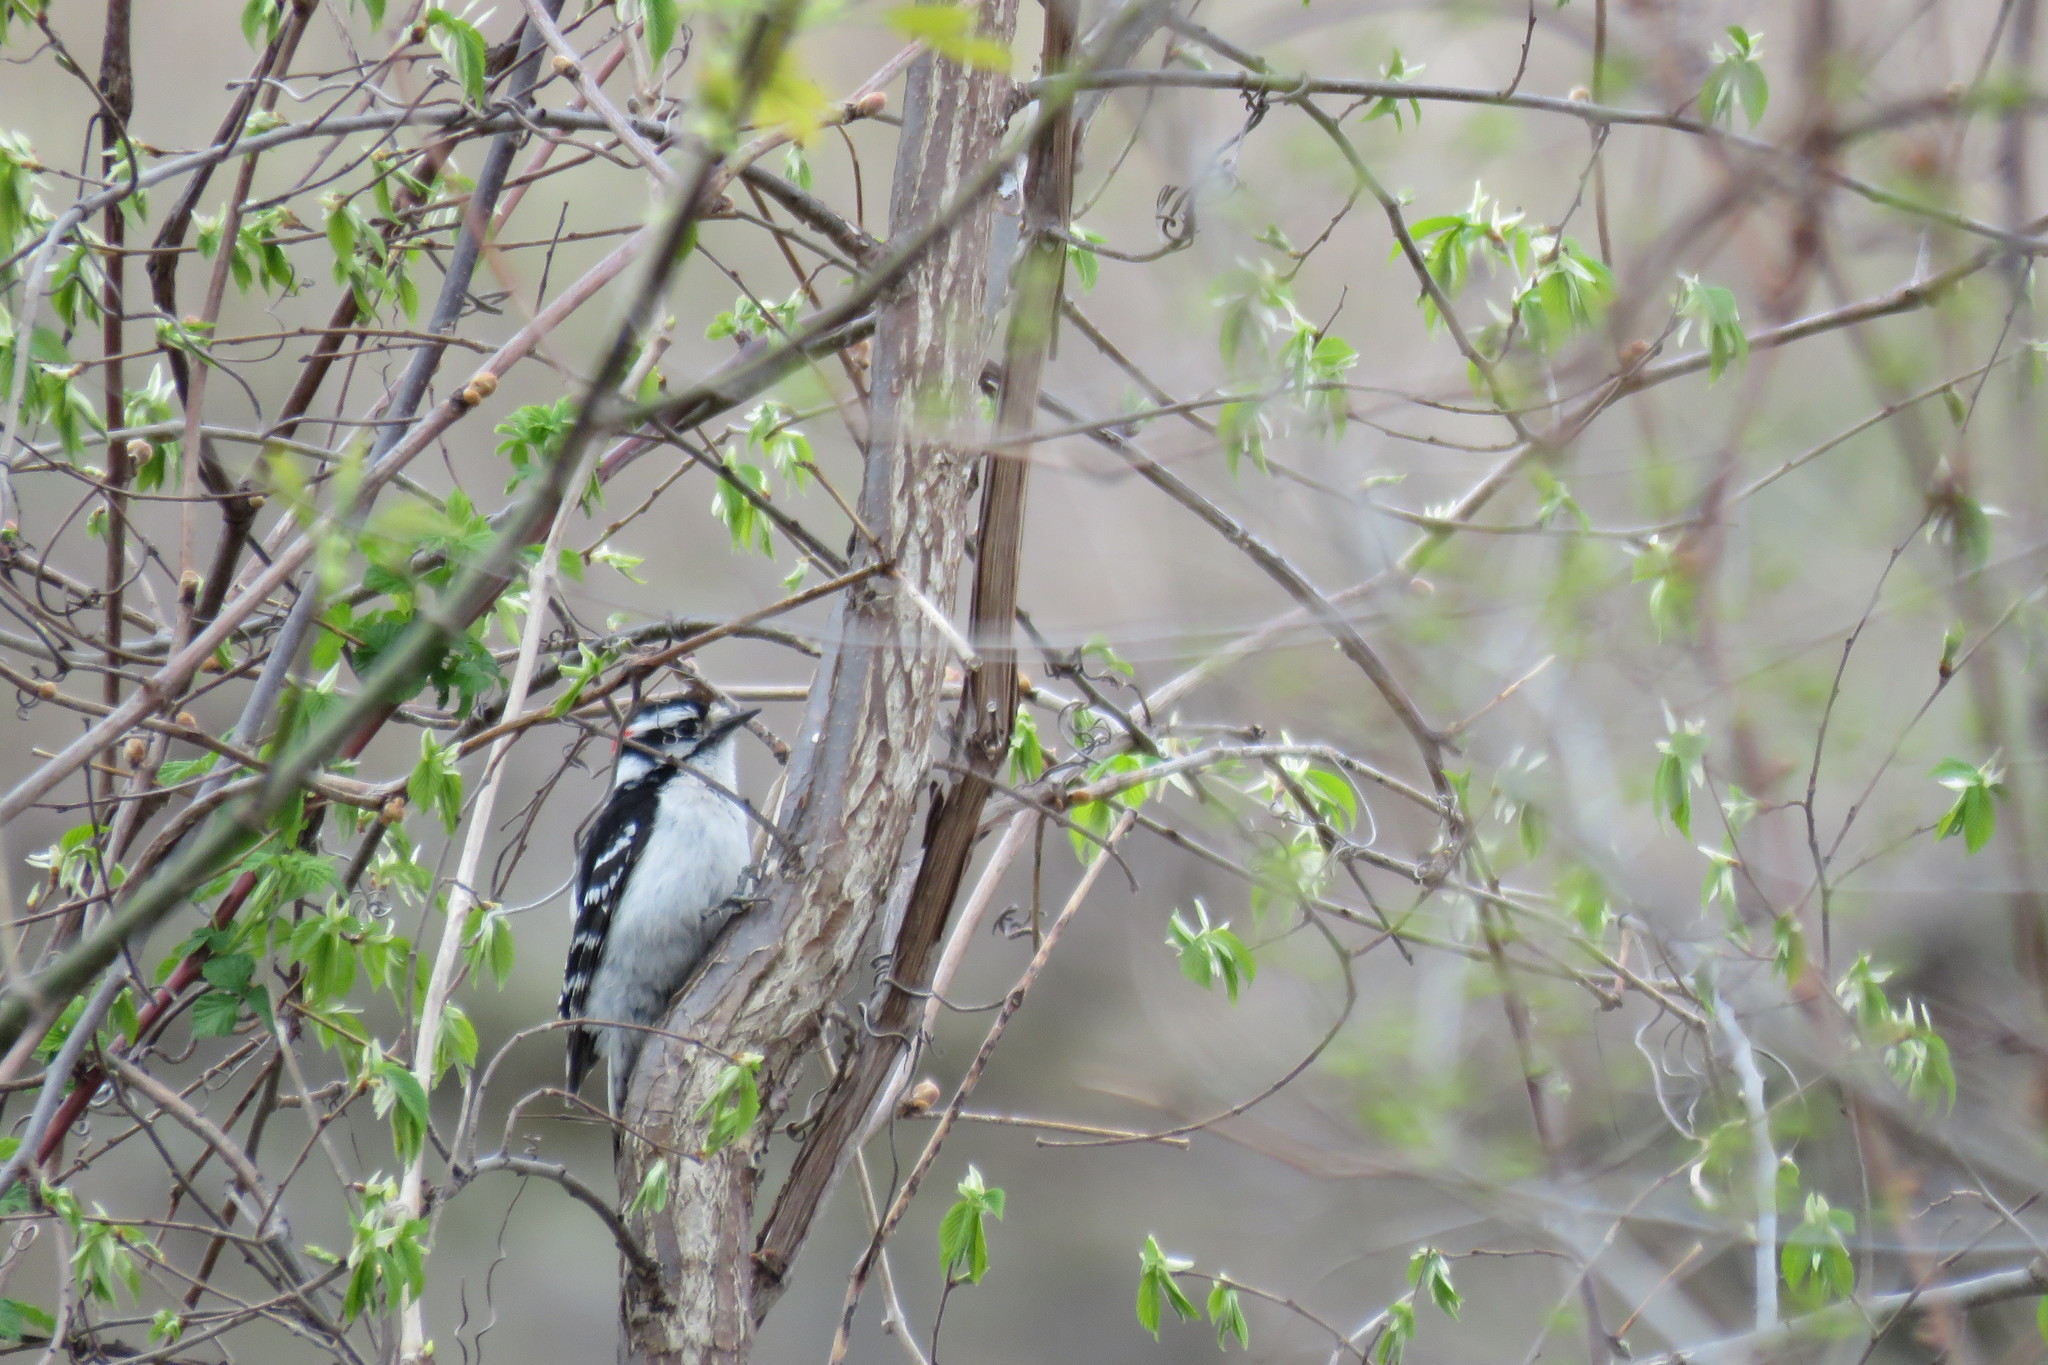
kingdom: Animalia
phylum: Chordata
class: Aves
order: Piciformes
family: Picidae
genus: Dryobates
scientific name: Dryobates pubescens
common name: Downy woodpecker
